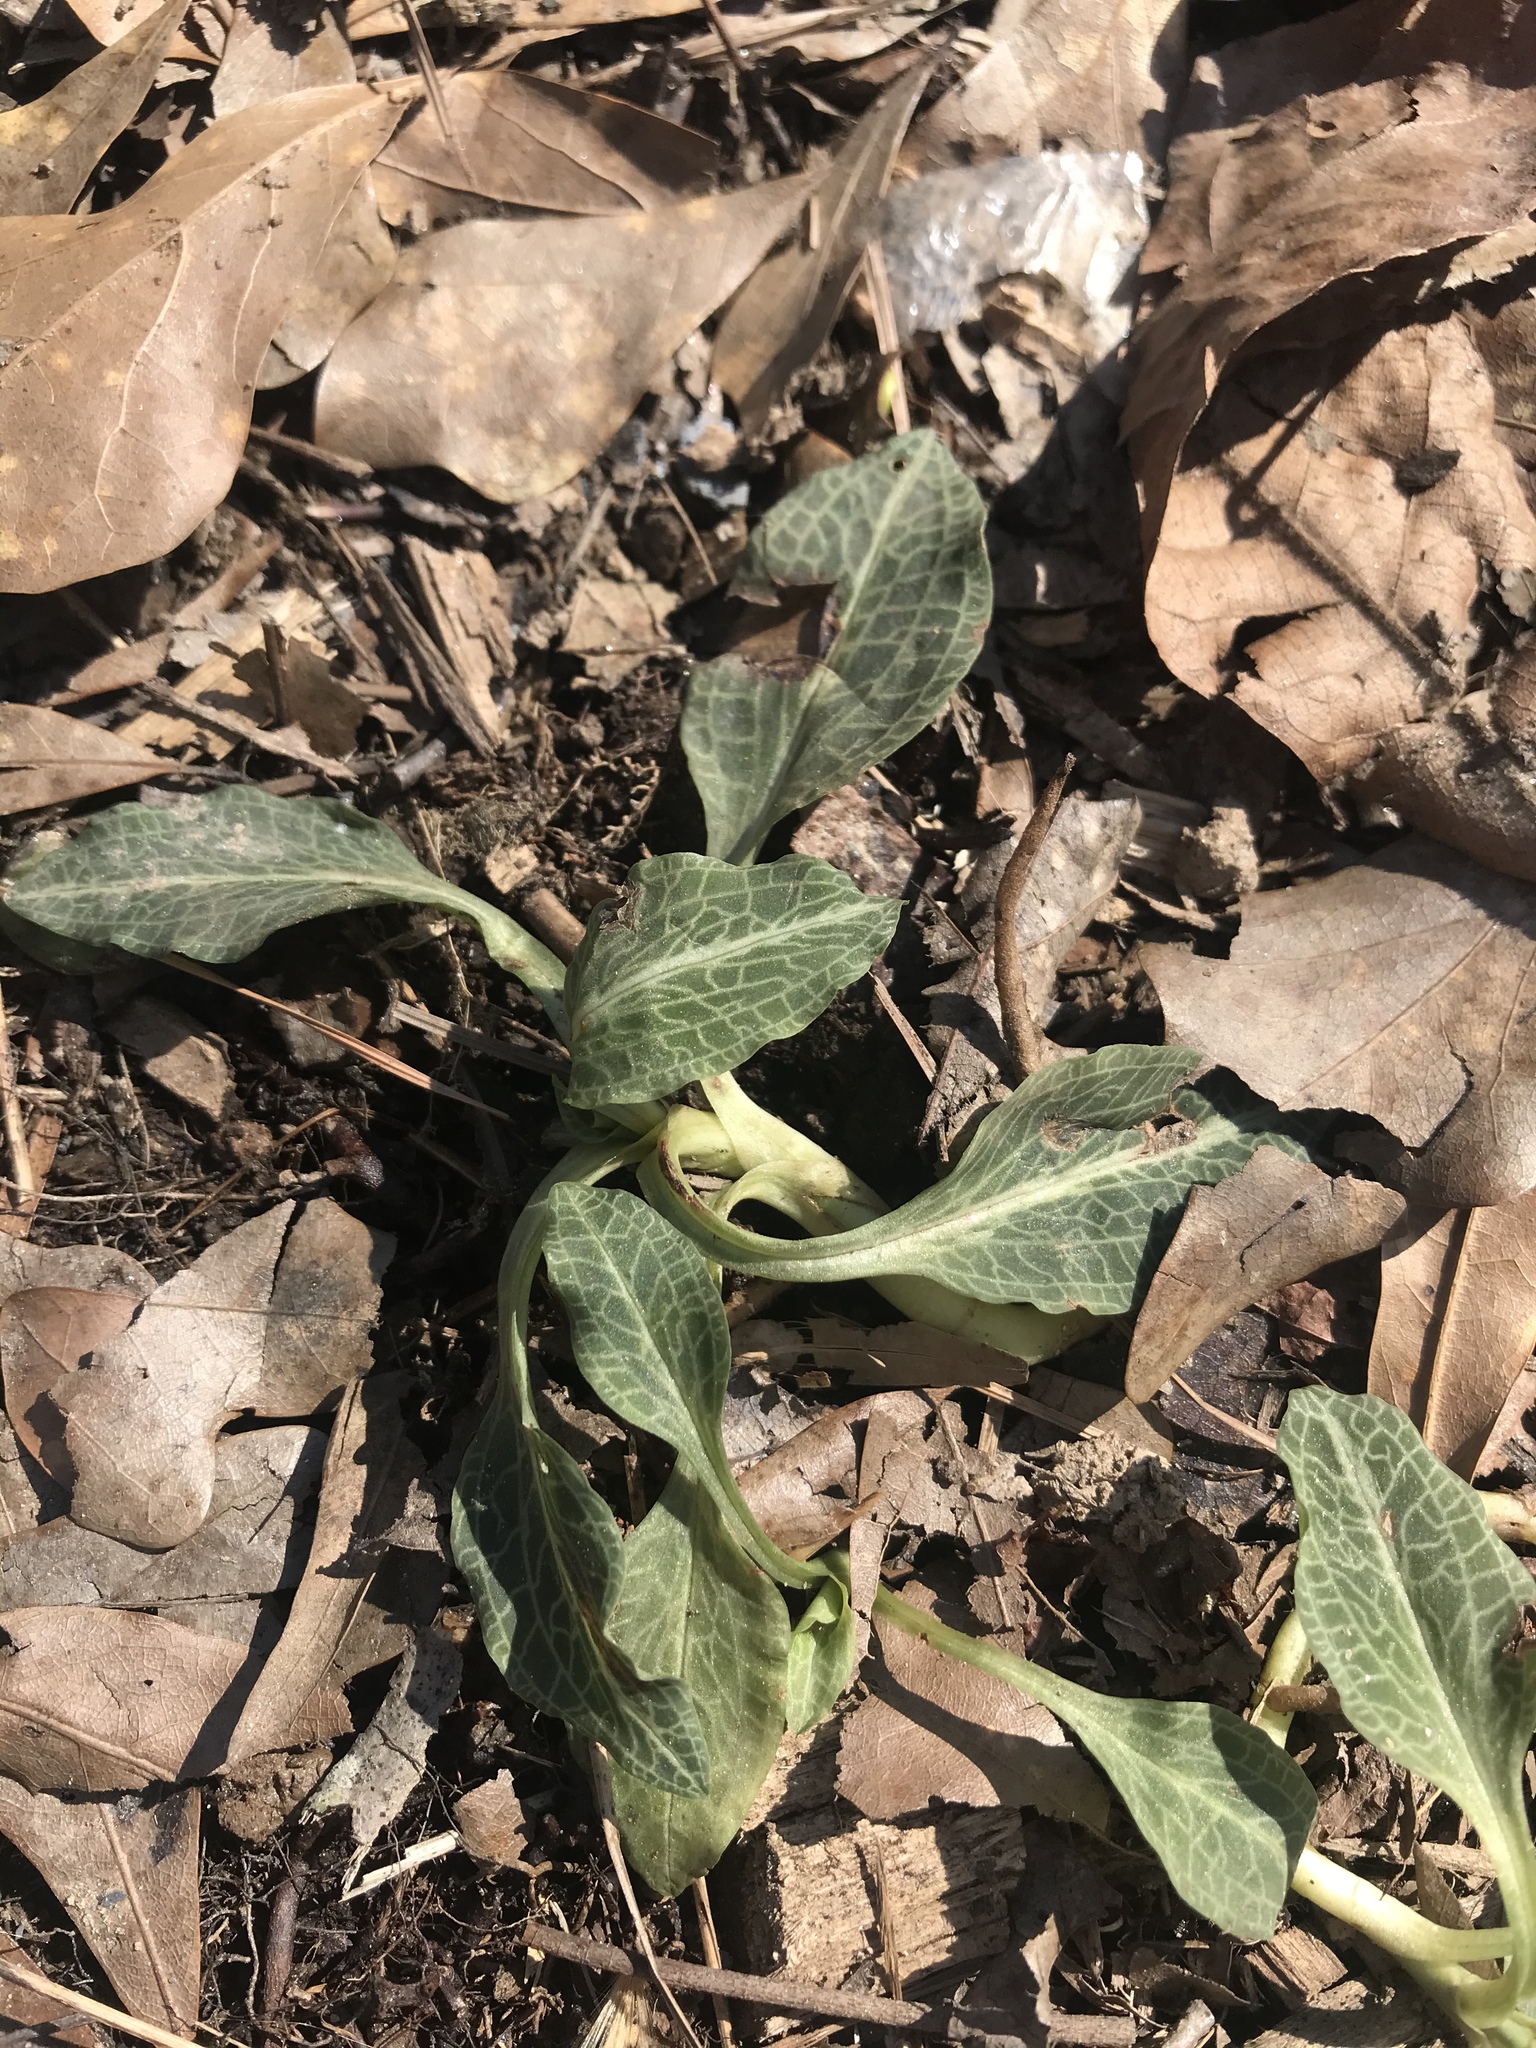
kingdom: Plantae
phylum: Tracheophyta
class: Liliopsida
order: Asparagales
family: Orchidaceae
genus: Goodyera
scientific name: Goodyera pubescens
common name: Downy rattlesnake-plantain
